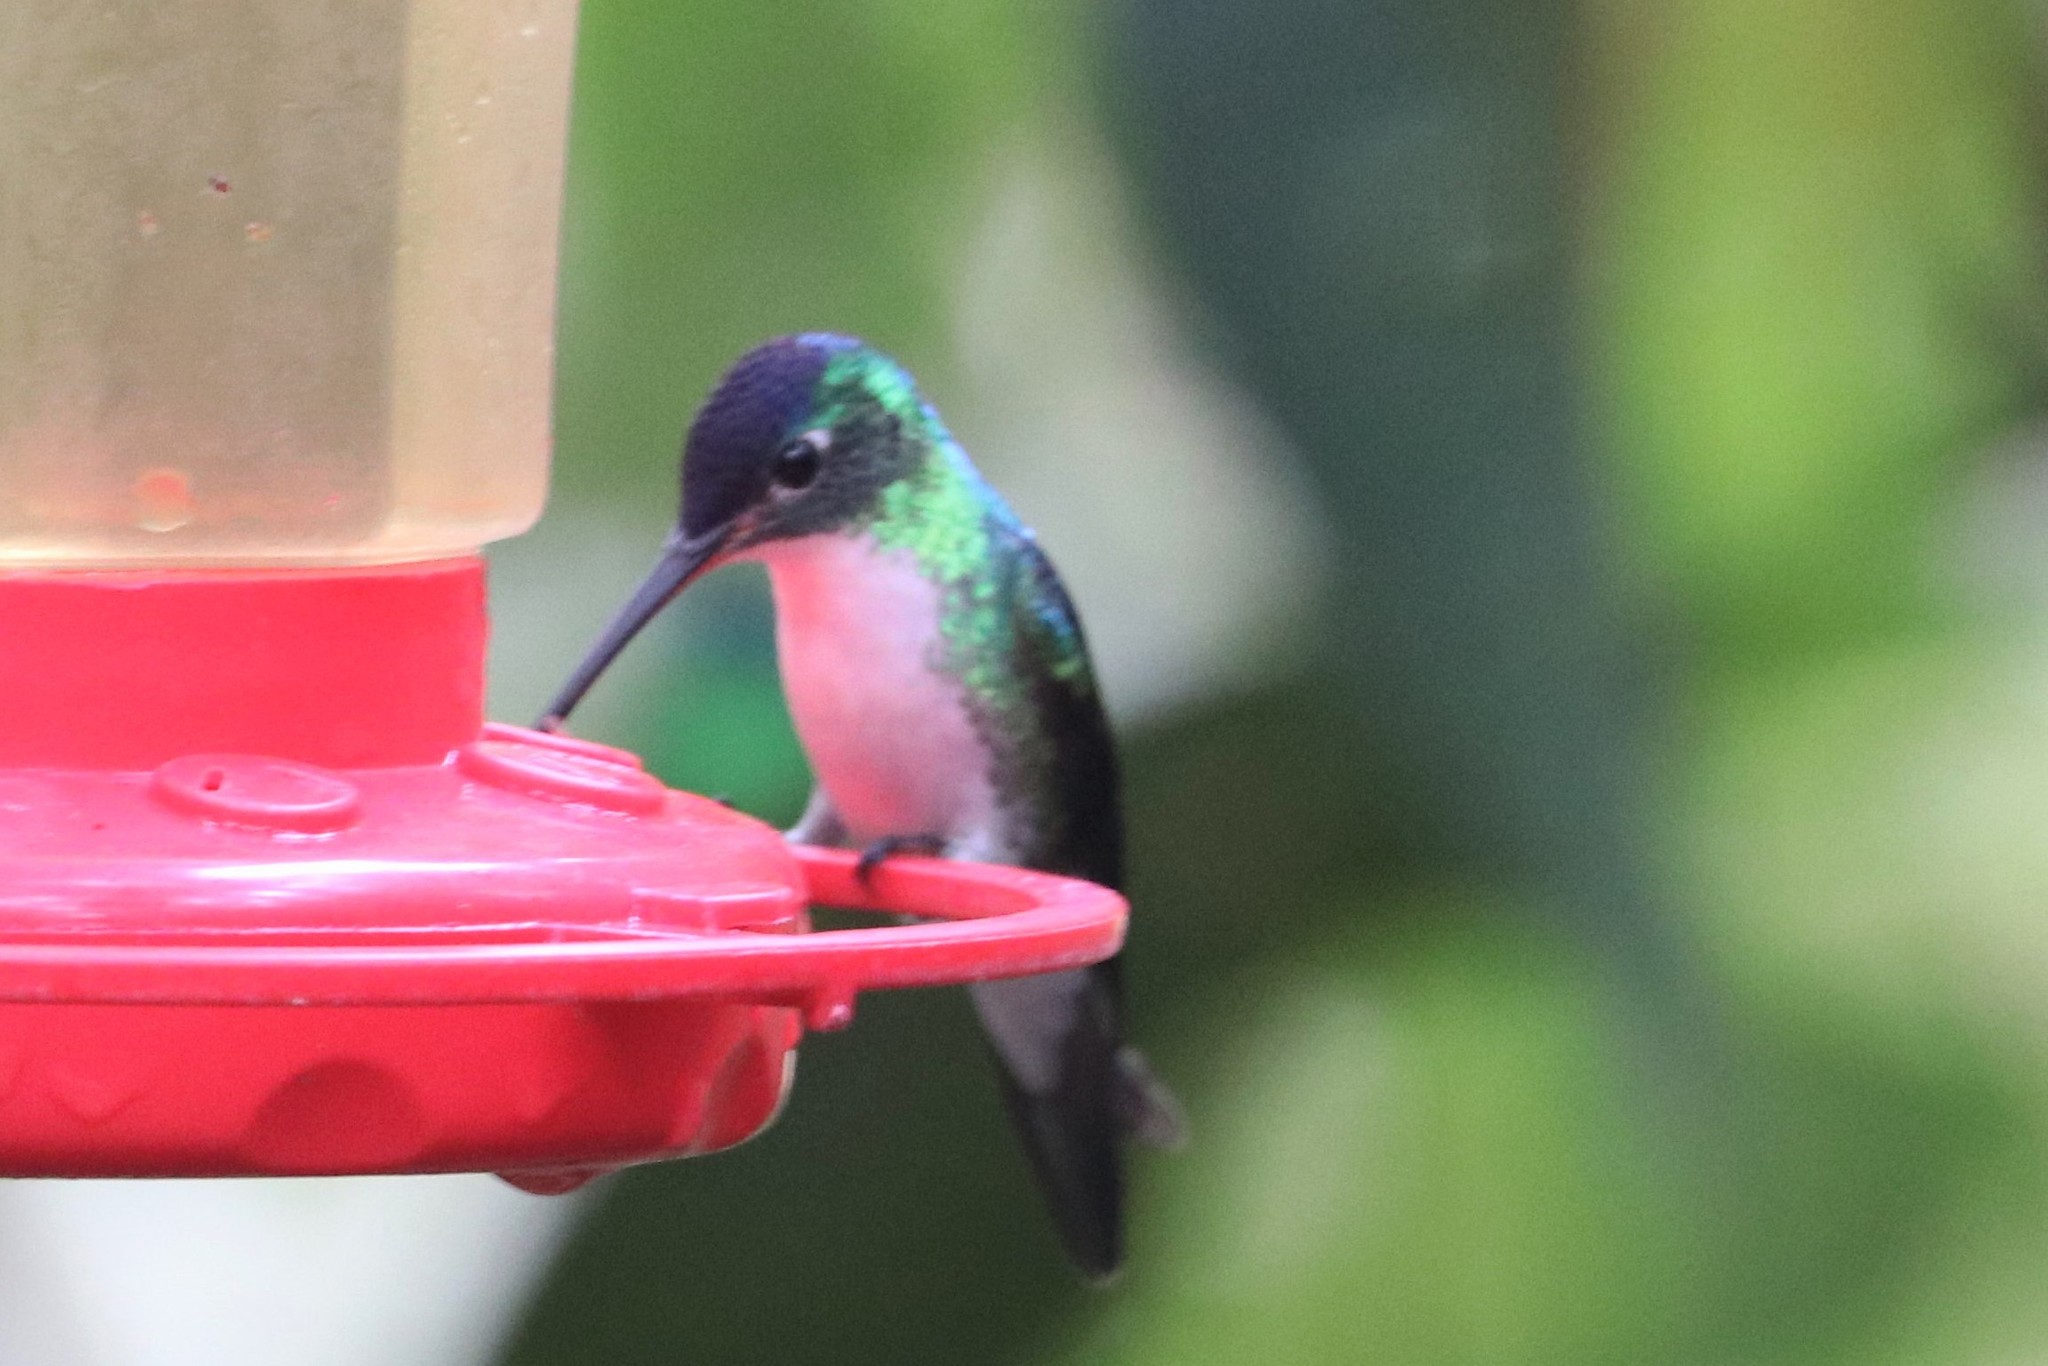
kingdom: Animalia
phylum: Chordata
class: Aves
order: Apodiformes
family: Trochilidae
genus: Uranomitra
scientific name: Uranomitra franciae
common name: Andean emerald
